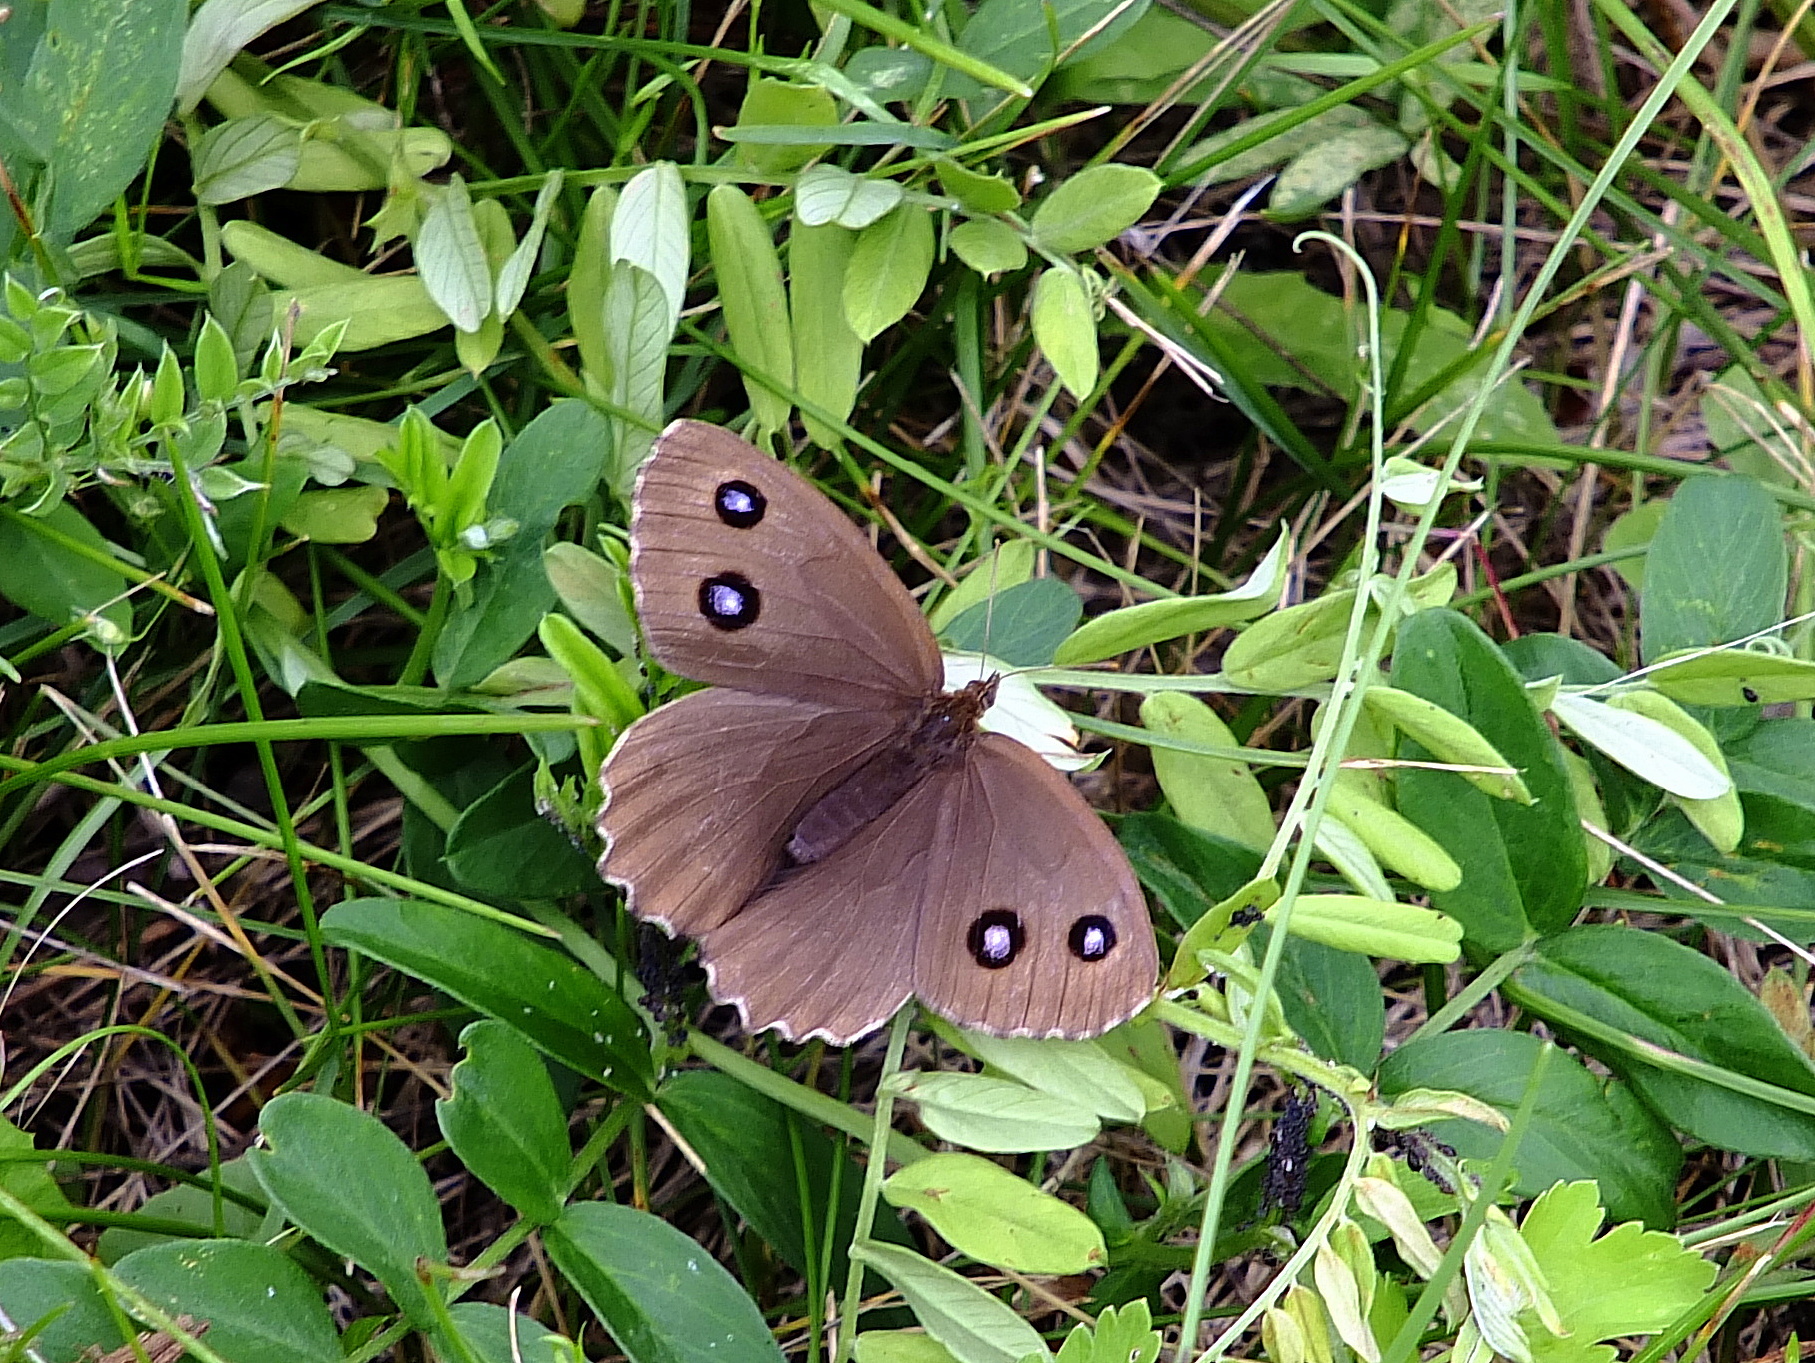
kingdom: Animalia
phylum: Arthropoda
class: Insecta
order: Lepidoptera
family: Nymphalidae
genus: Minois
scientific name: Minois dryas
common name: Dryad
